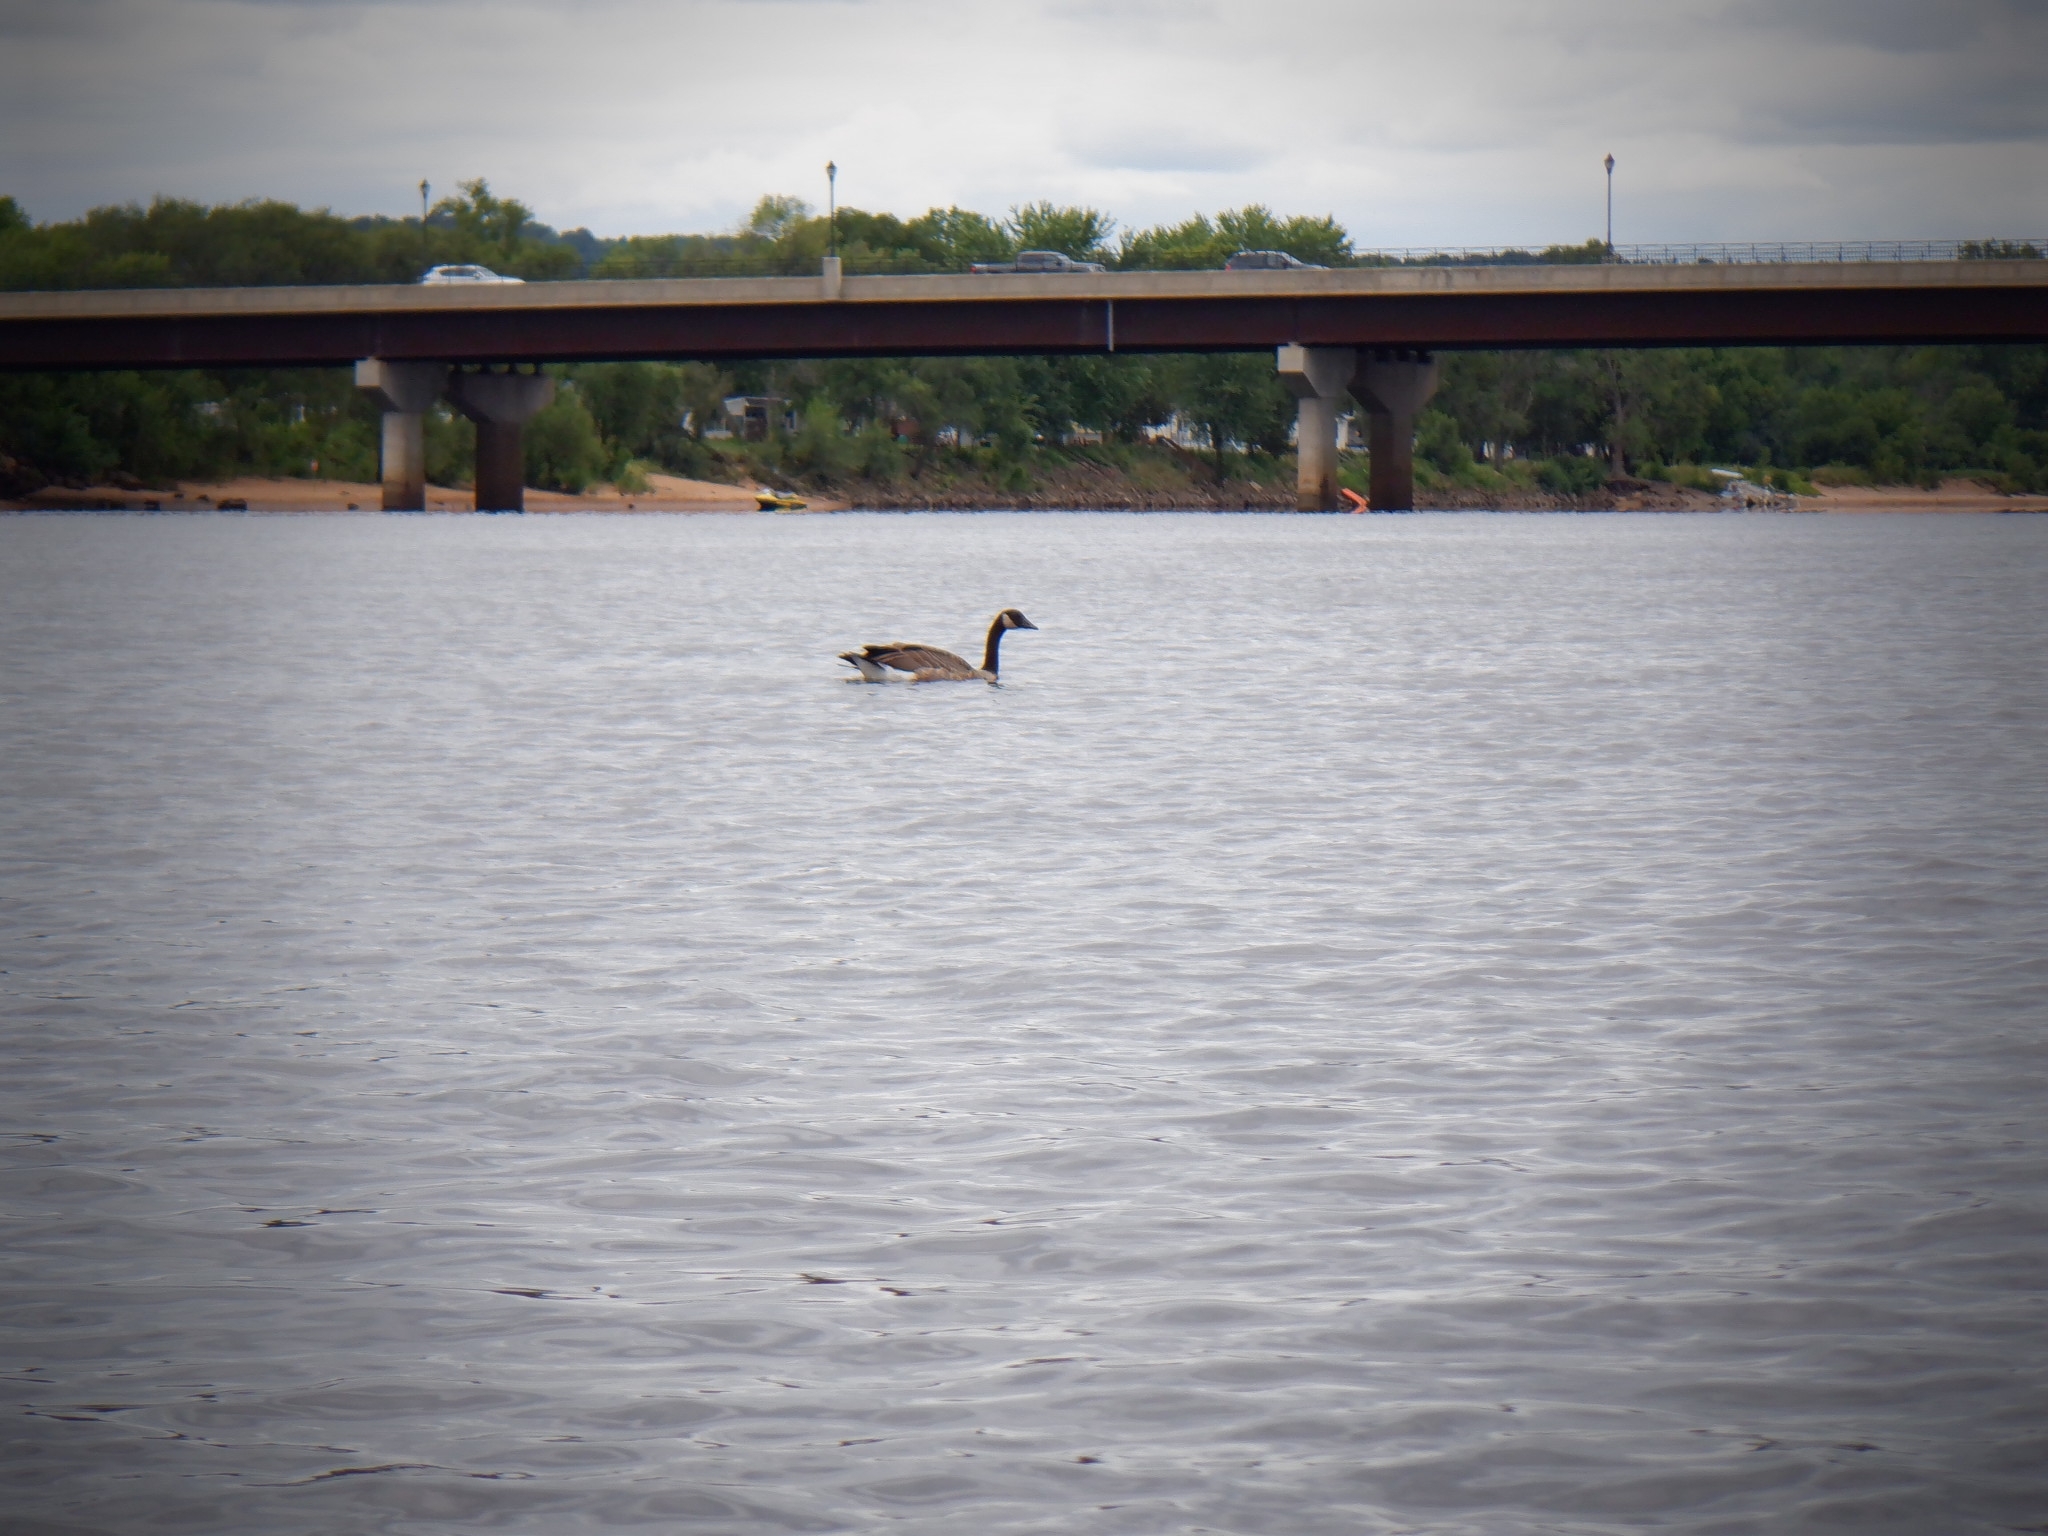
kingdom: Animalia
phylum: Chordata
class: Aves
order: Anseriformes
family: Anatidae
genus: Branta
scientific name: Branta canadensis
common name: Canada goose
